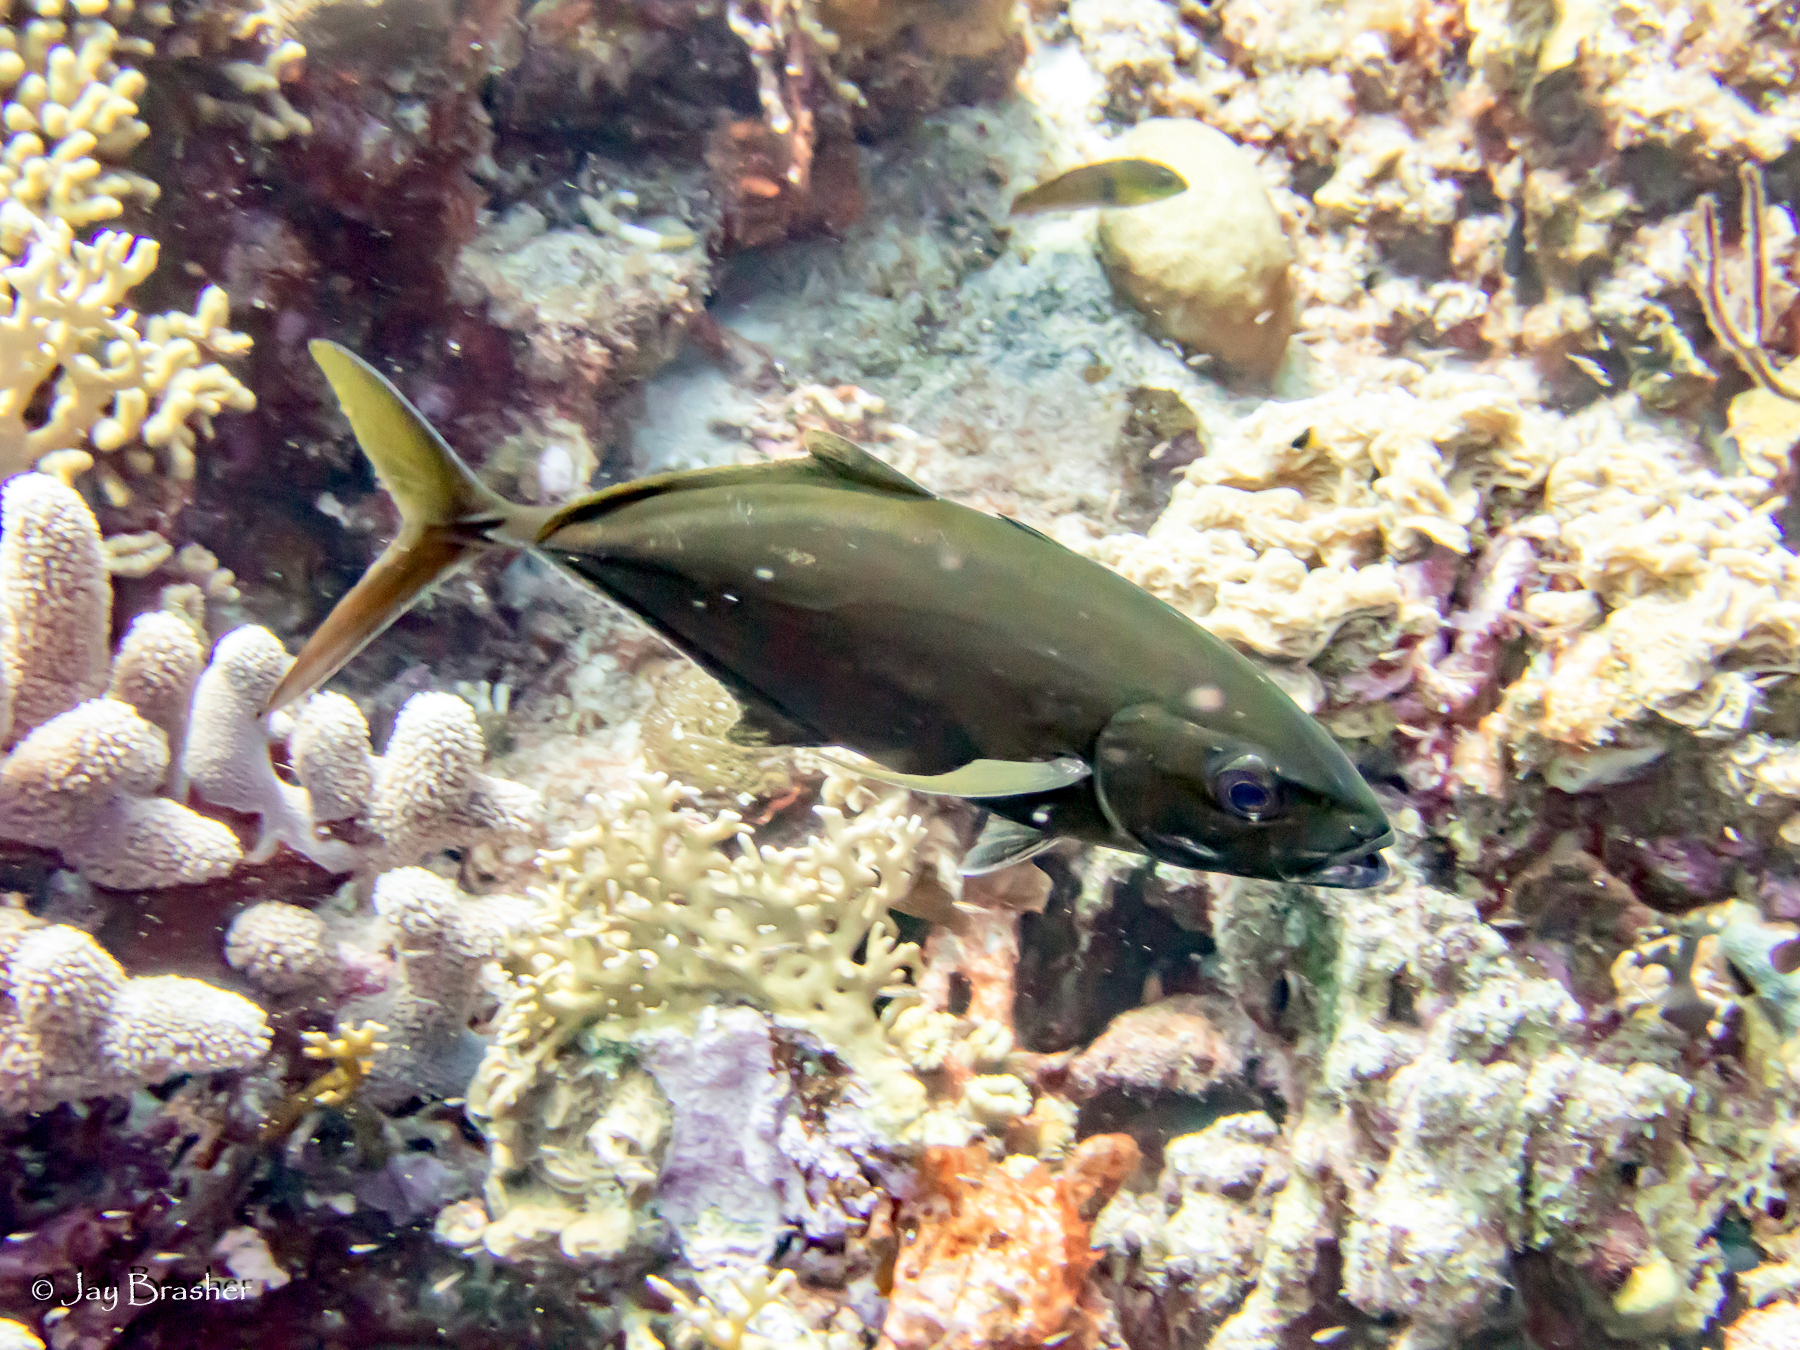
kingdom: Animalia
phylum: Chordata
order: Perciformes
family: Carangidae
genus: Caranx
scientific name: Caranx ruber
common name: Bar jack
